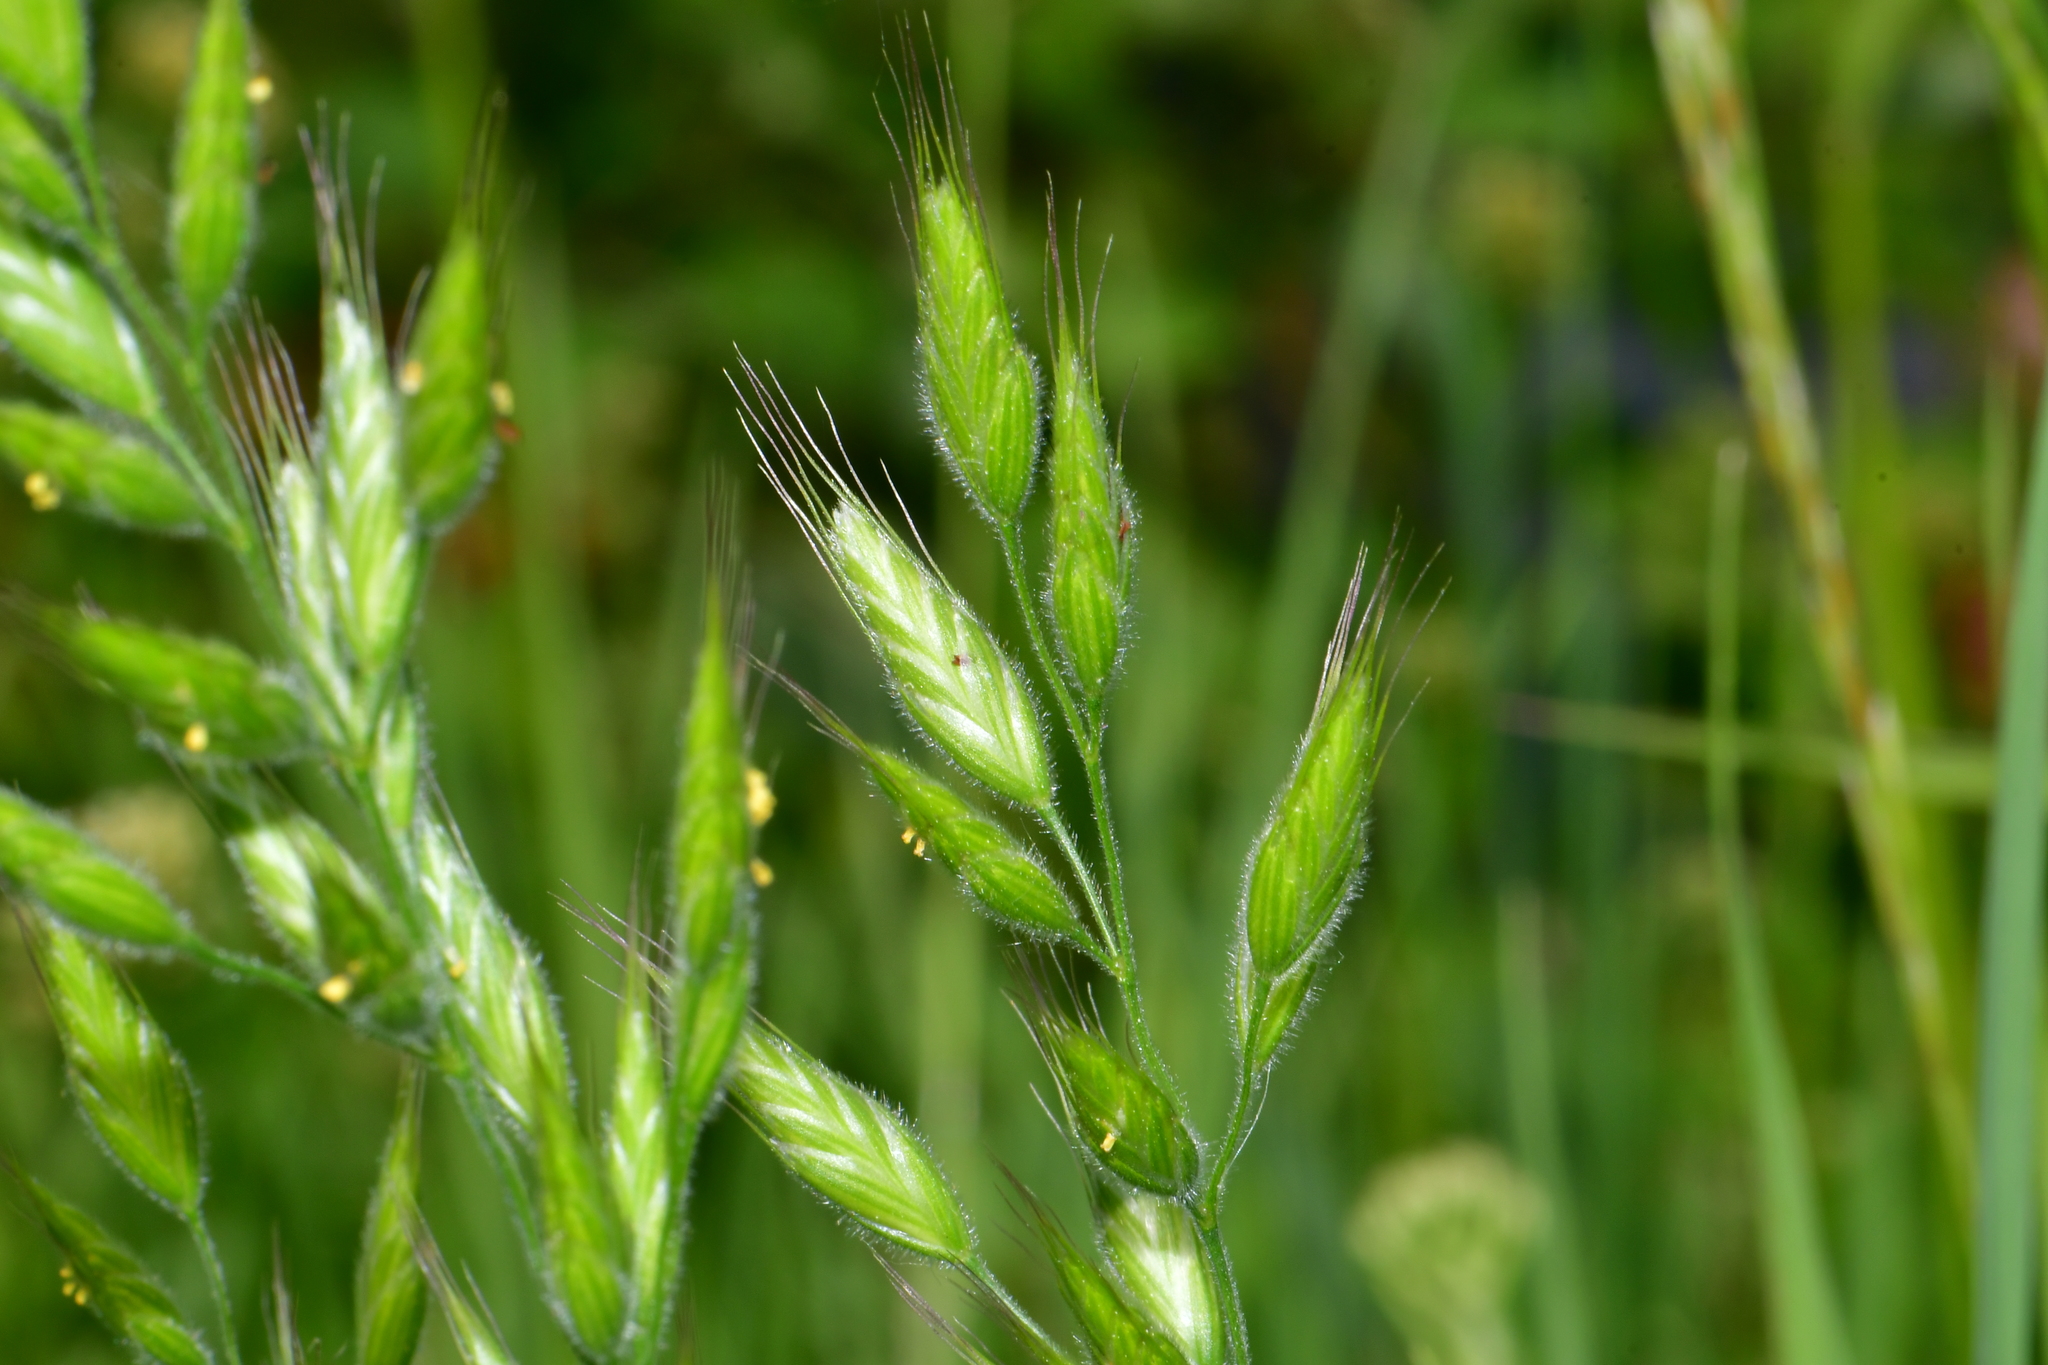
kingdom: Plantae
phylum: Tracheophyta
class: Liliopsida
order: Poales
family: Poaceae
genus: Bromus
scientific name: Bromus hordeaceus
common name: Soft brome
